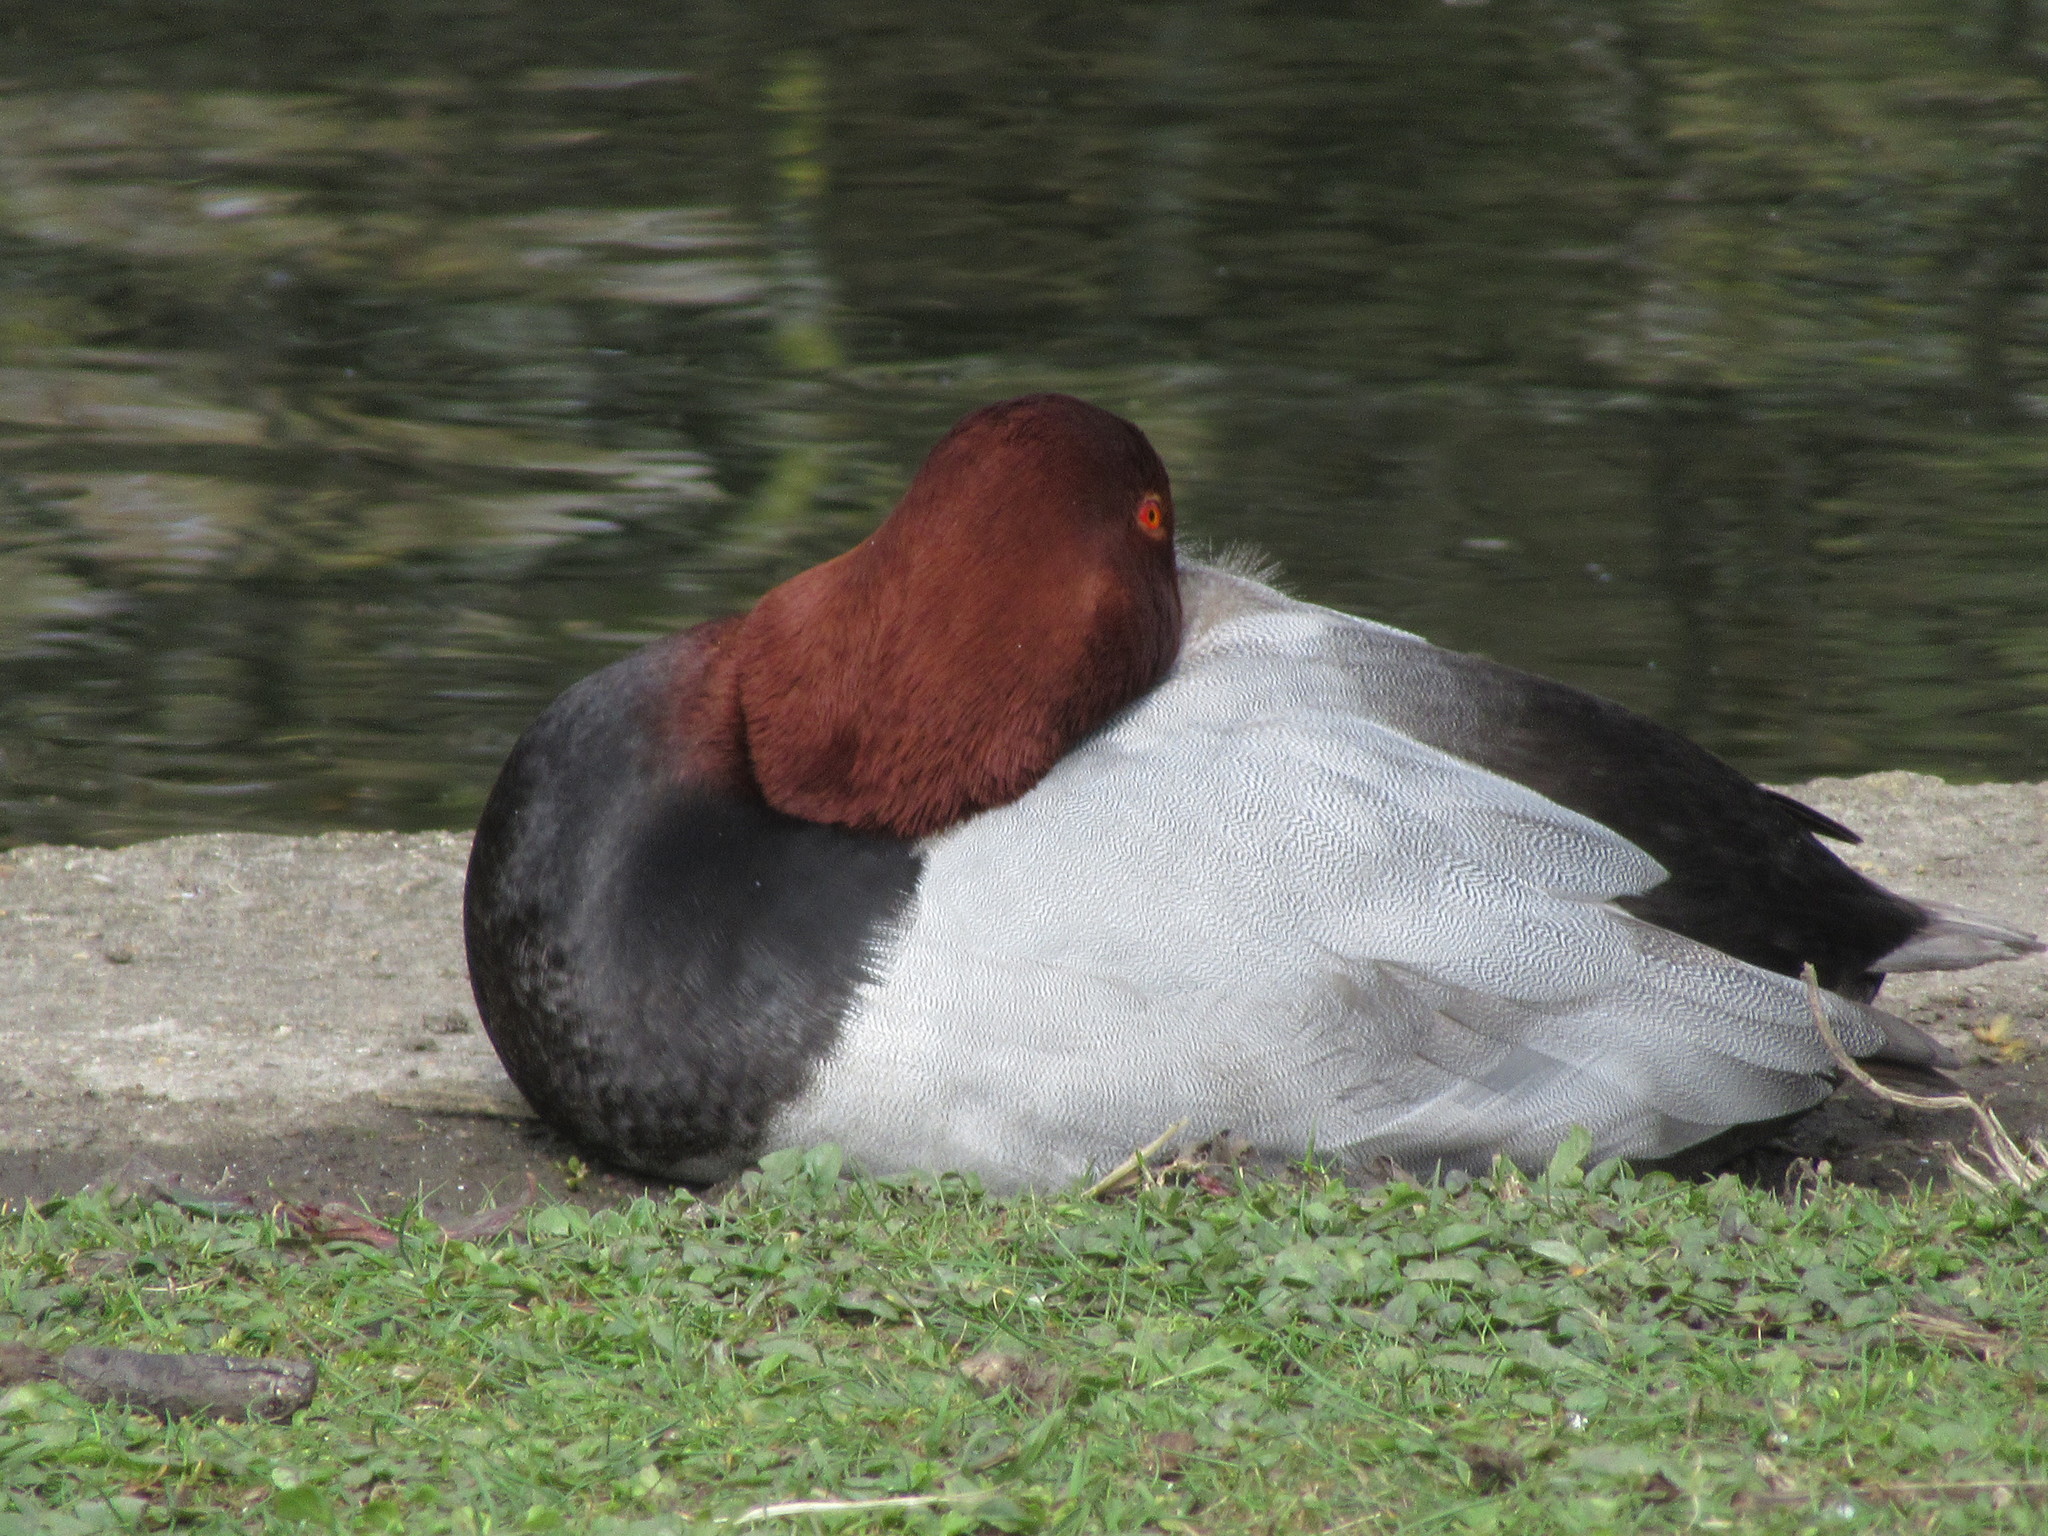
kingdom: Animalia
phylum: Chordata
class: Aves
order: Anseriformes
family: Anatidae
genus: Aythya
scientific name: Aythya ferina
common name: Common pochard
